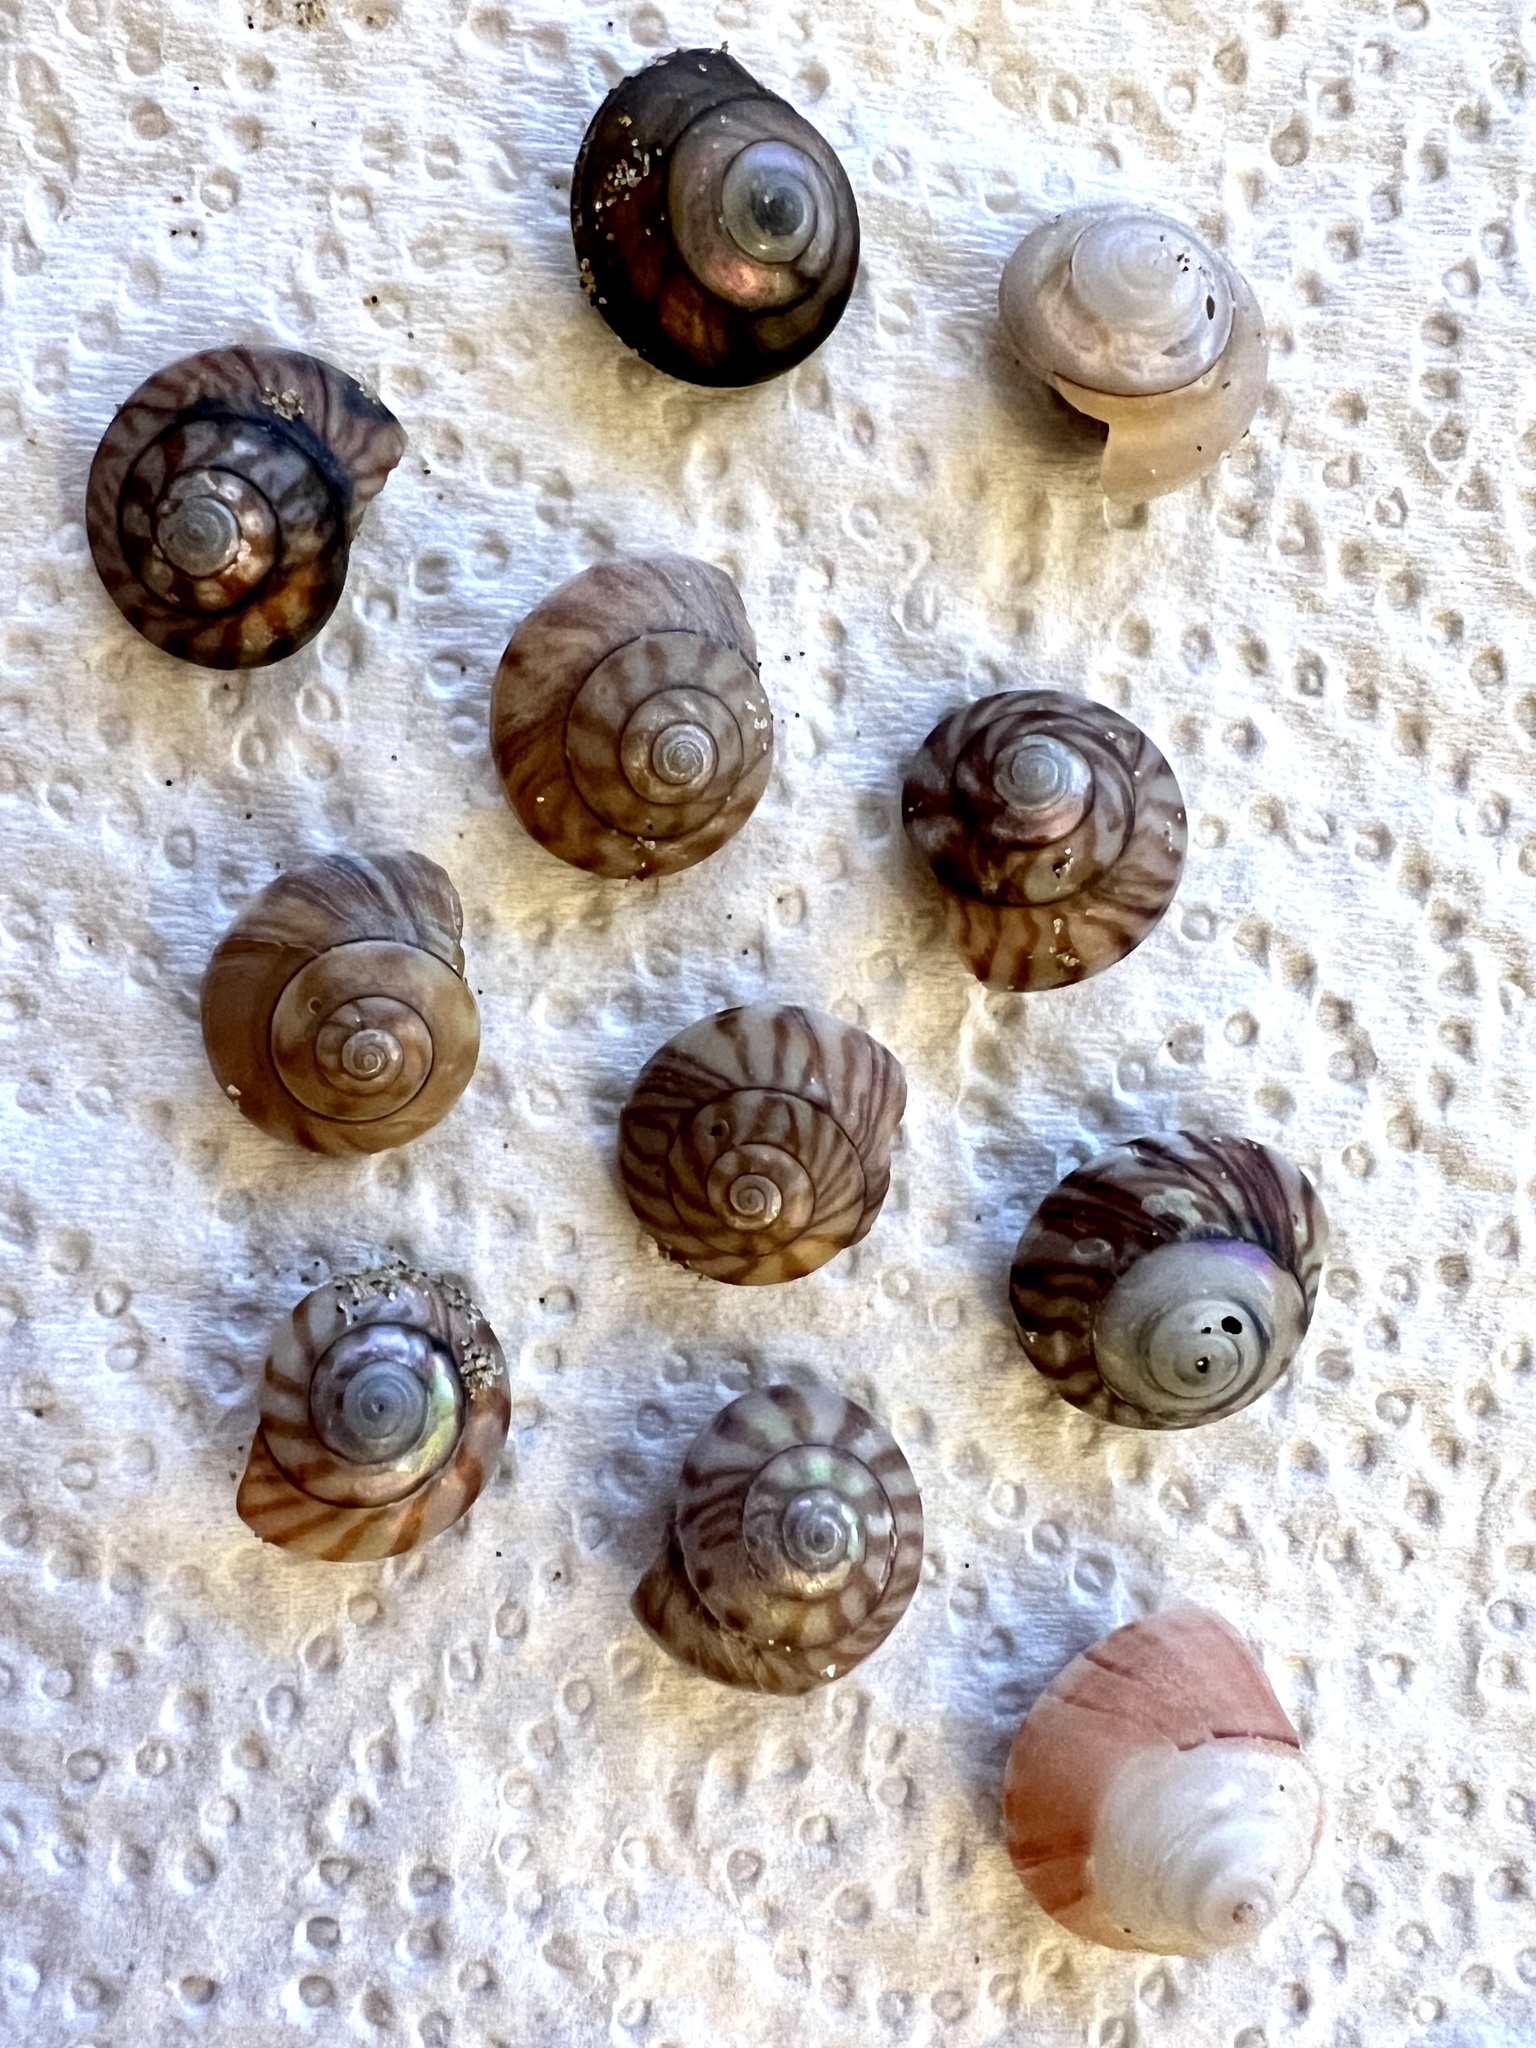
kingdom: Animalia
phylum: Mollusca
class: Gastropoda
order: Trochida
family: Trochidae
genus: Zethalia
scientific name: Zethalia zelandica
